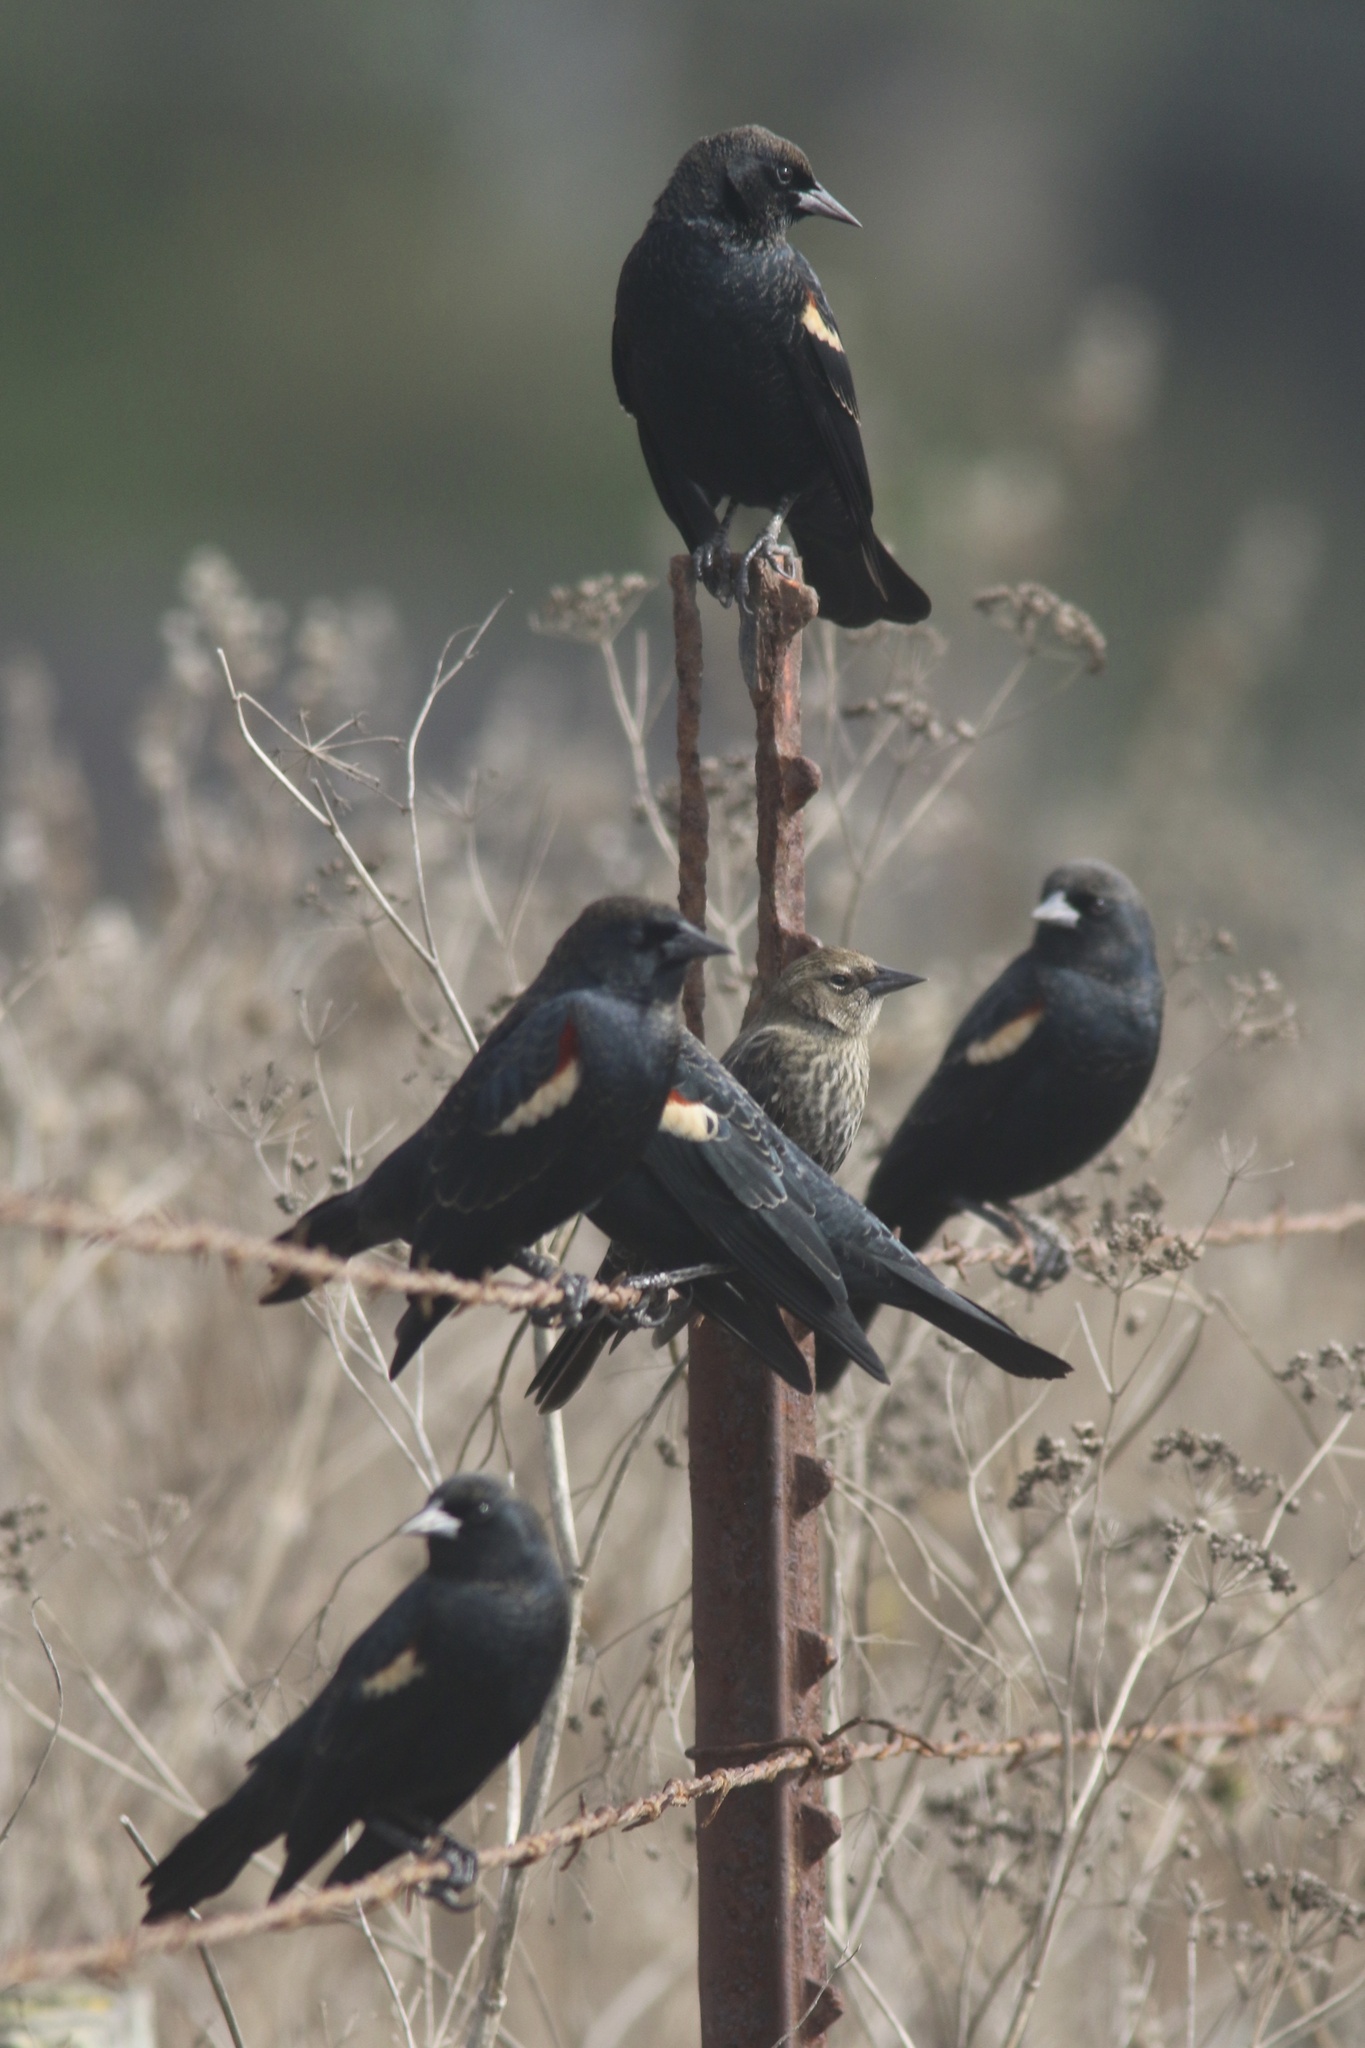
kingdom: Animalia
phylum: Chordata
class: Aves
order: Passeriformes
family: Icteridae
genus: Agelaius
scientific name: Agelaius tricolor
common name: Tricolored blackbird
